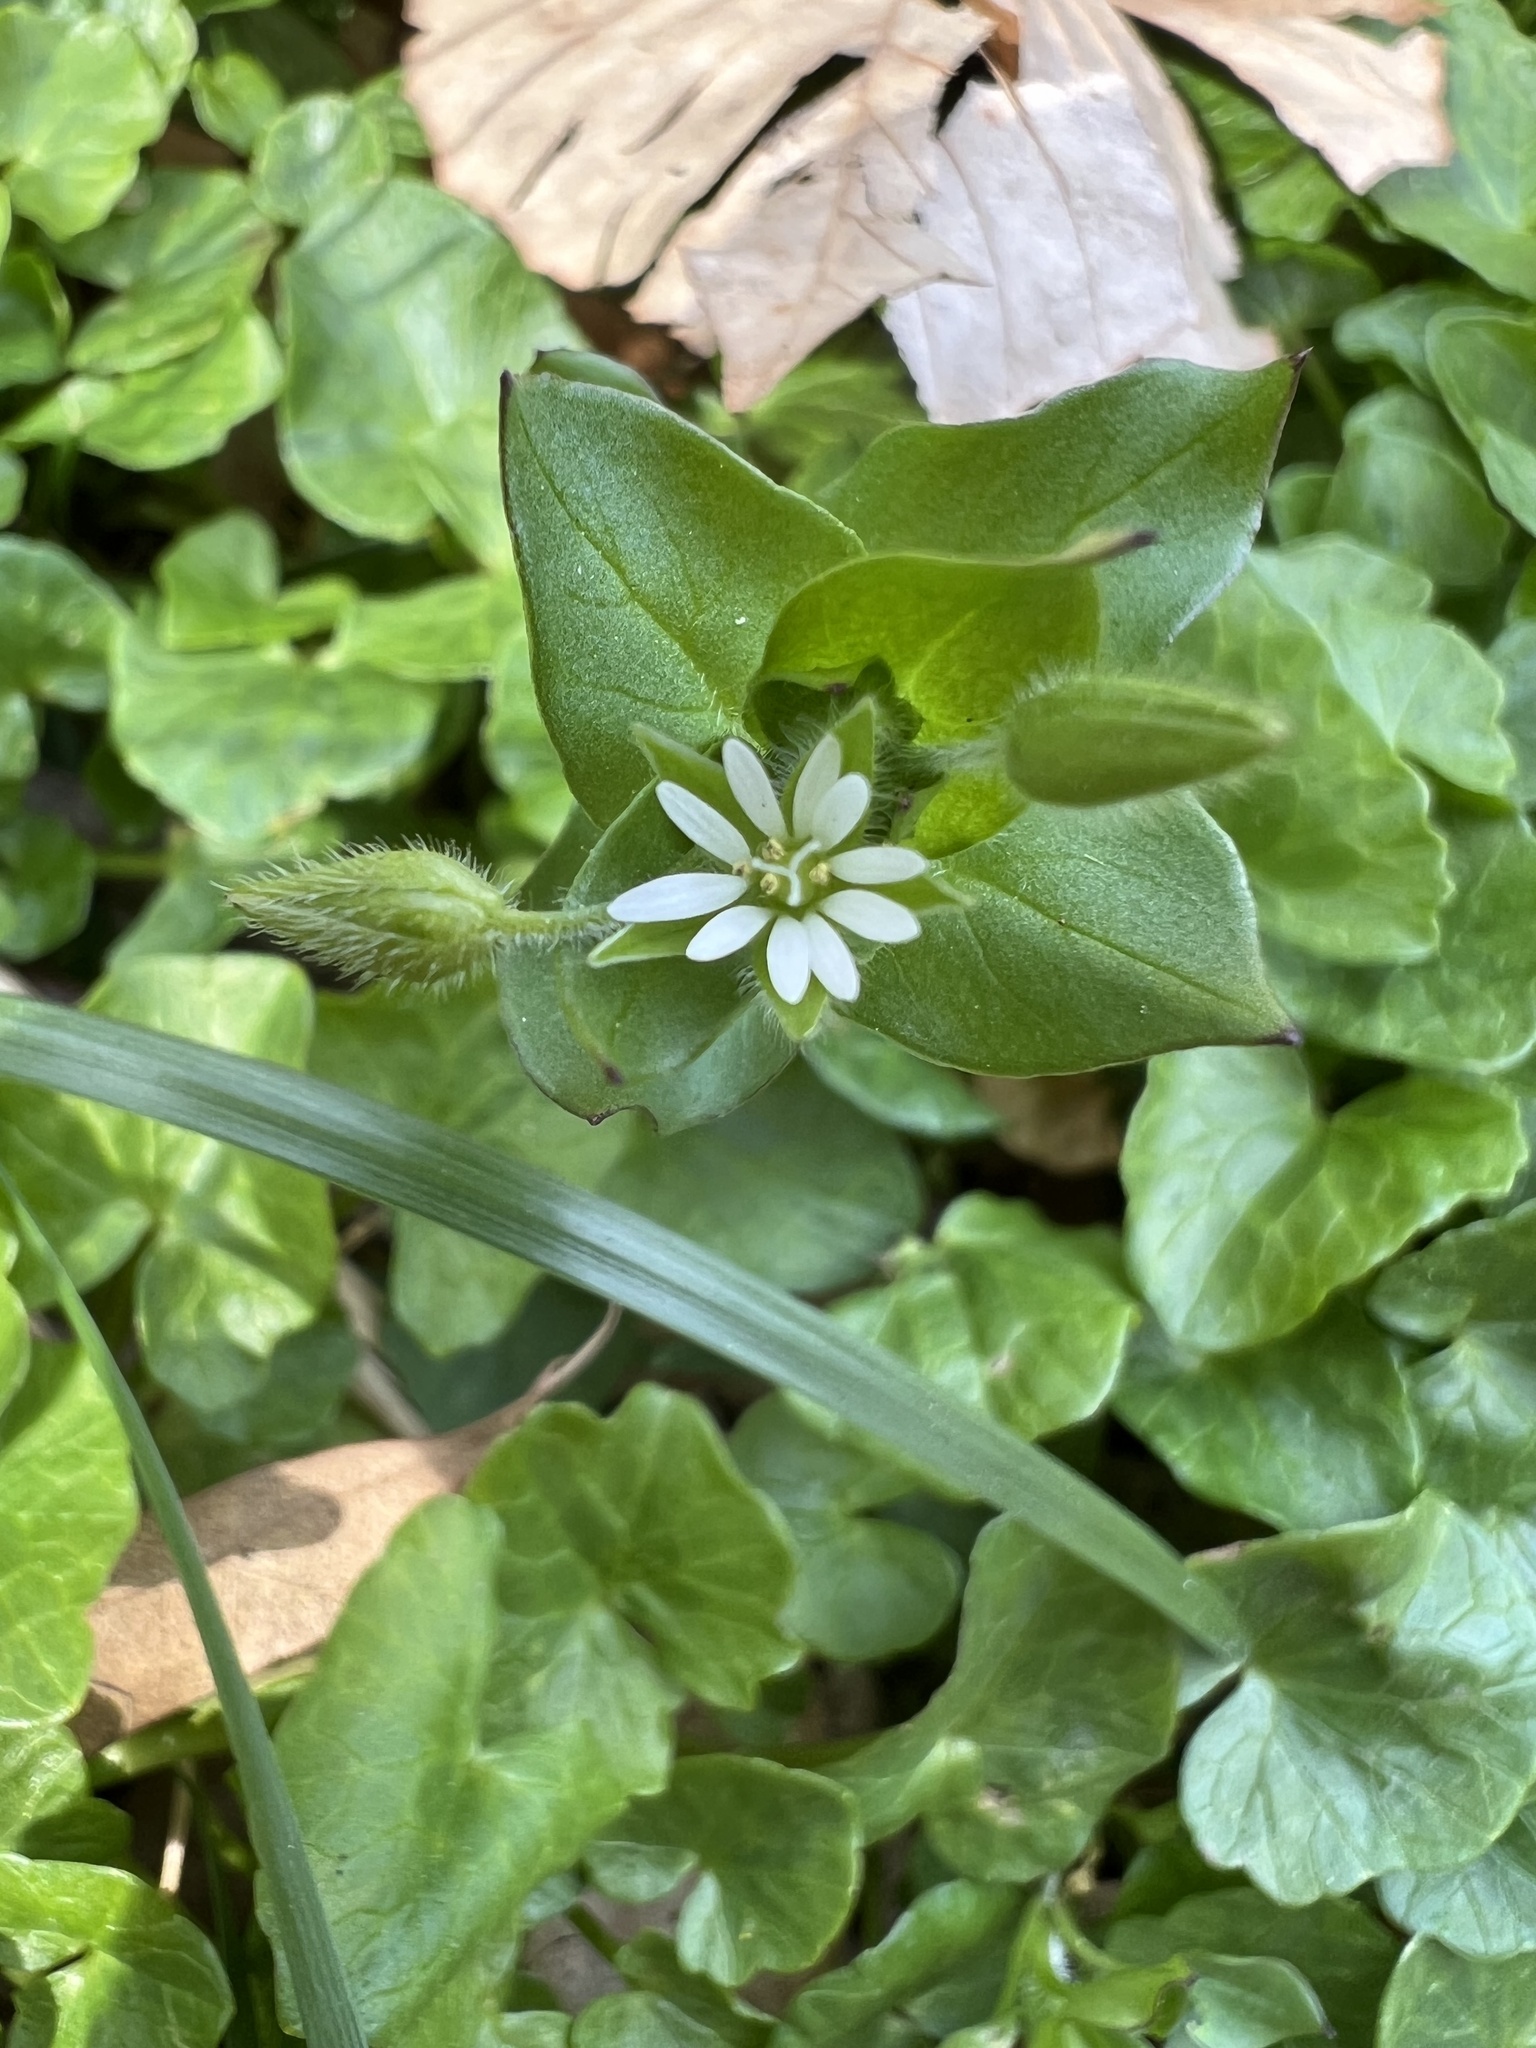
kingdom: Plantae
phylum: Tracheophyta
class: Magnoliopsida
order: Caryophyllales
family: Caryophyllaceae
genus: Stellaria
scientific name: Stellaria media
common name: Common chickweed
